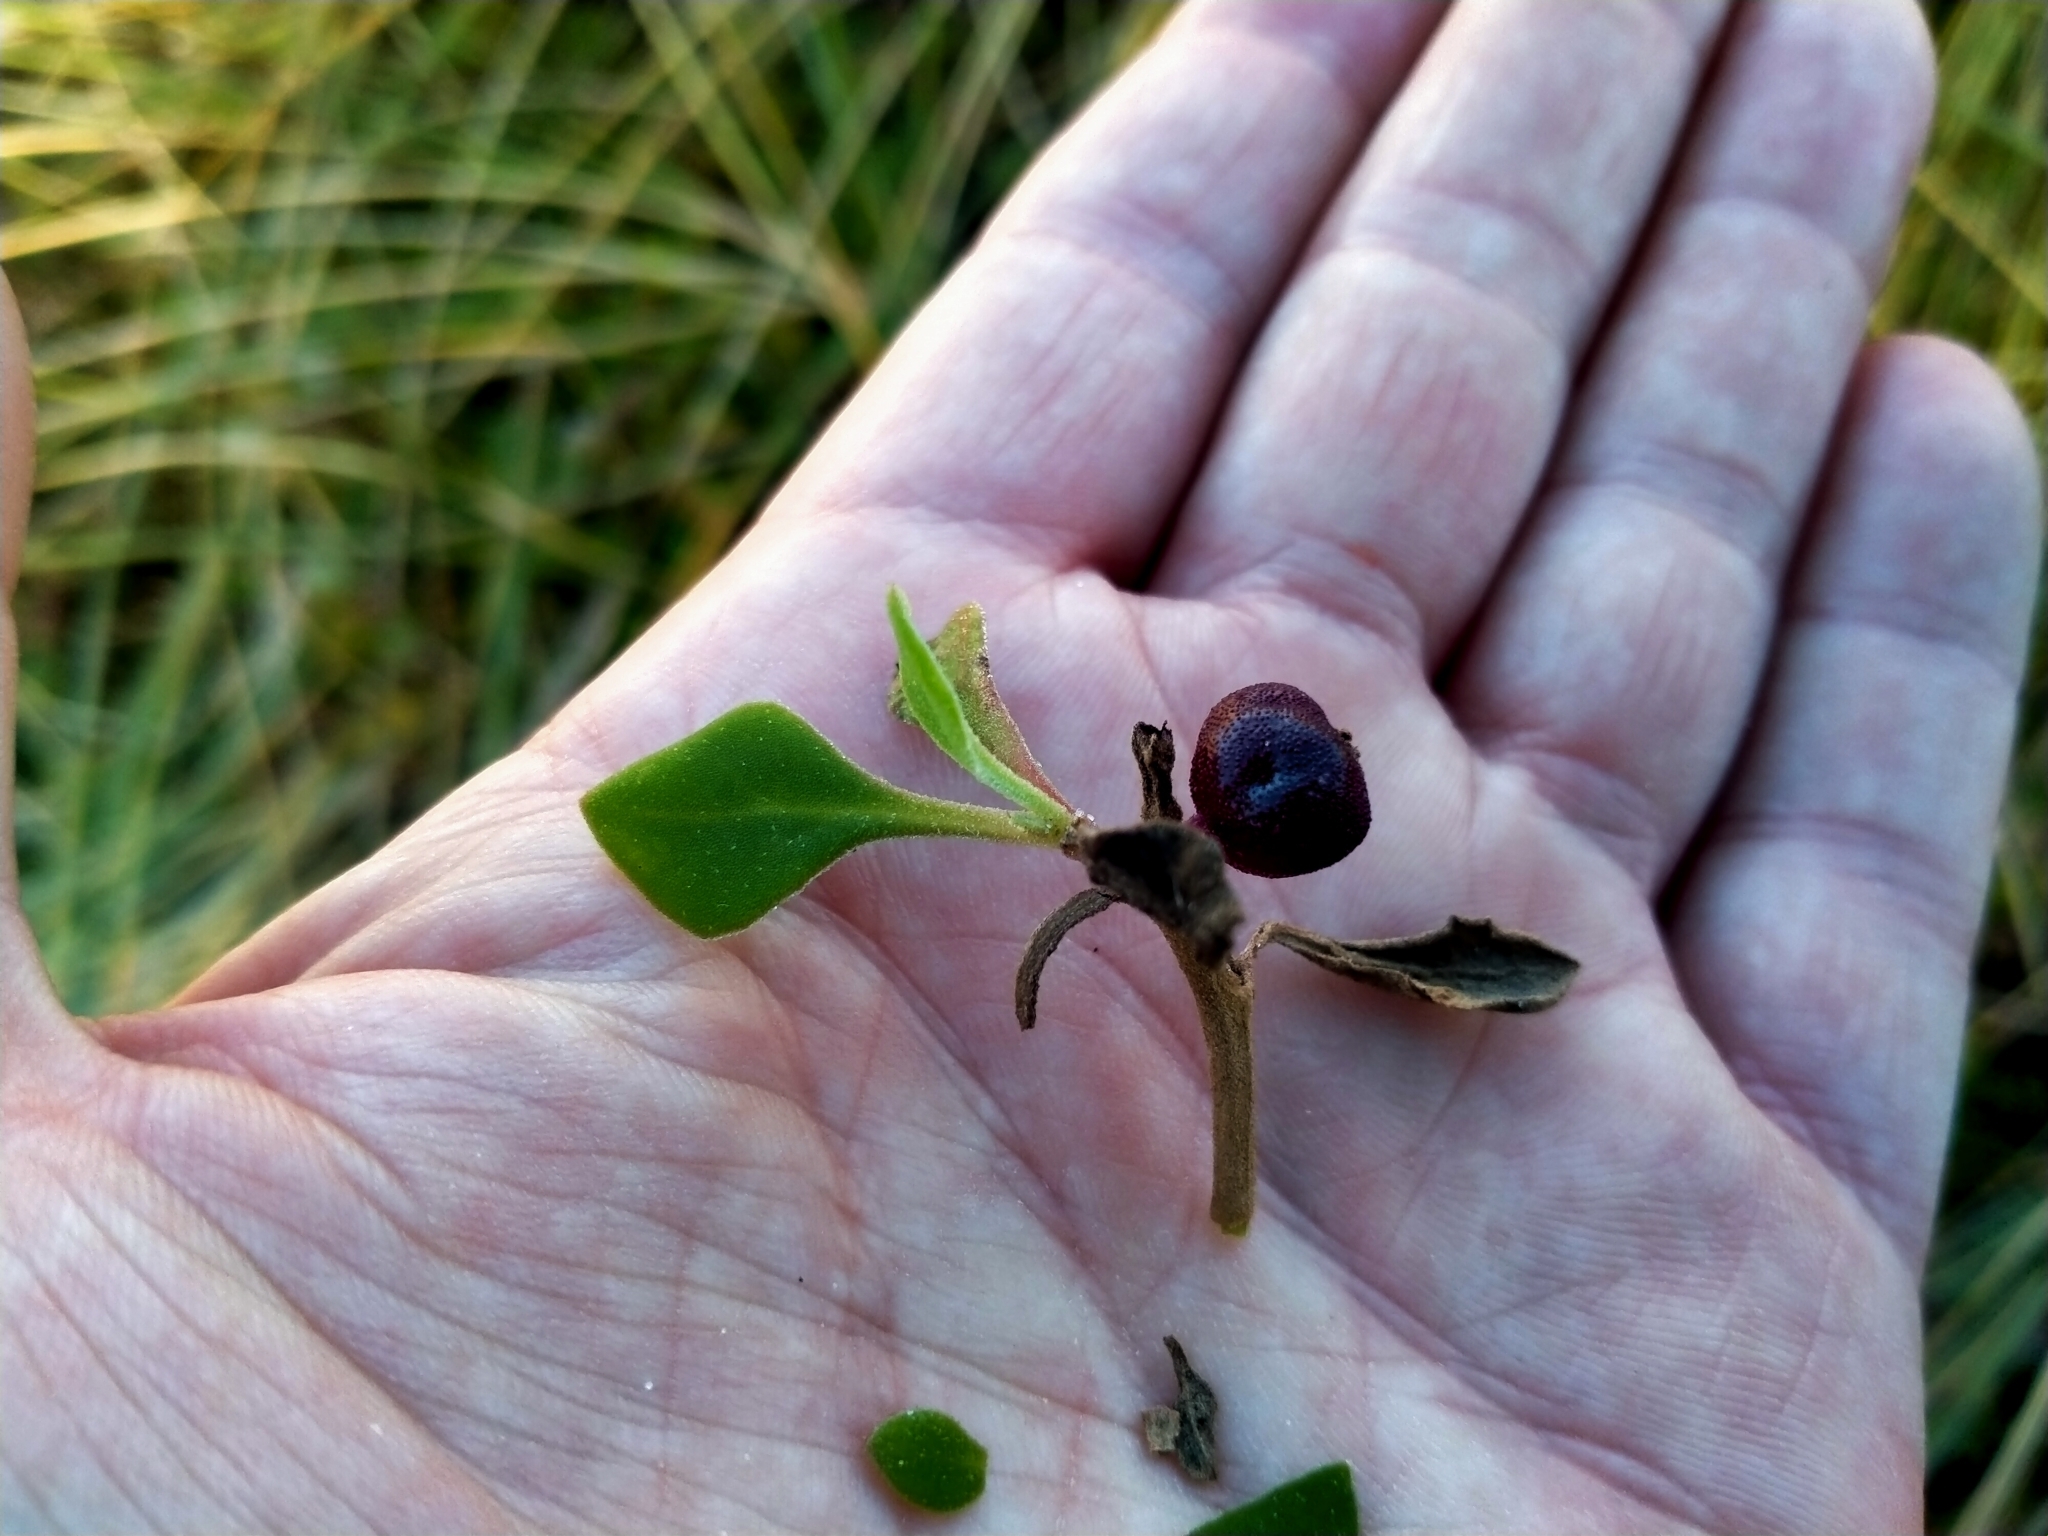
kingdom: Plantae
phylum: Tracheophyta
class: Magnoliopsida
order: Caryophyllales
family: Aizoaceae
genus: Tetragonia
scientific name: Tetragonia implexicoma
